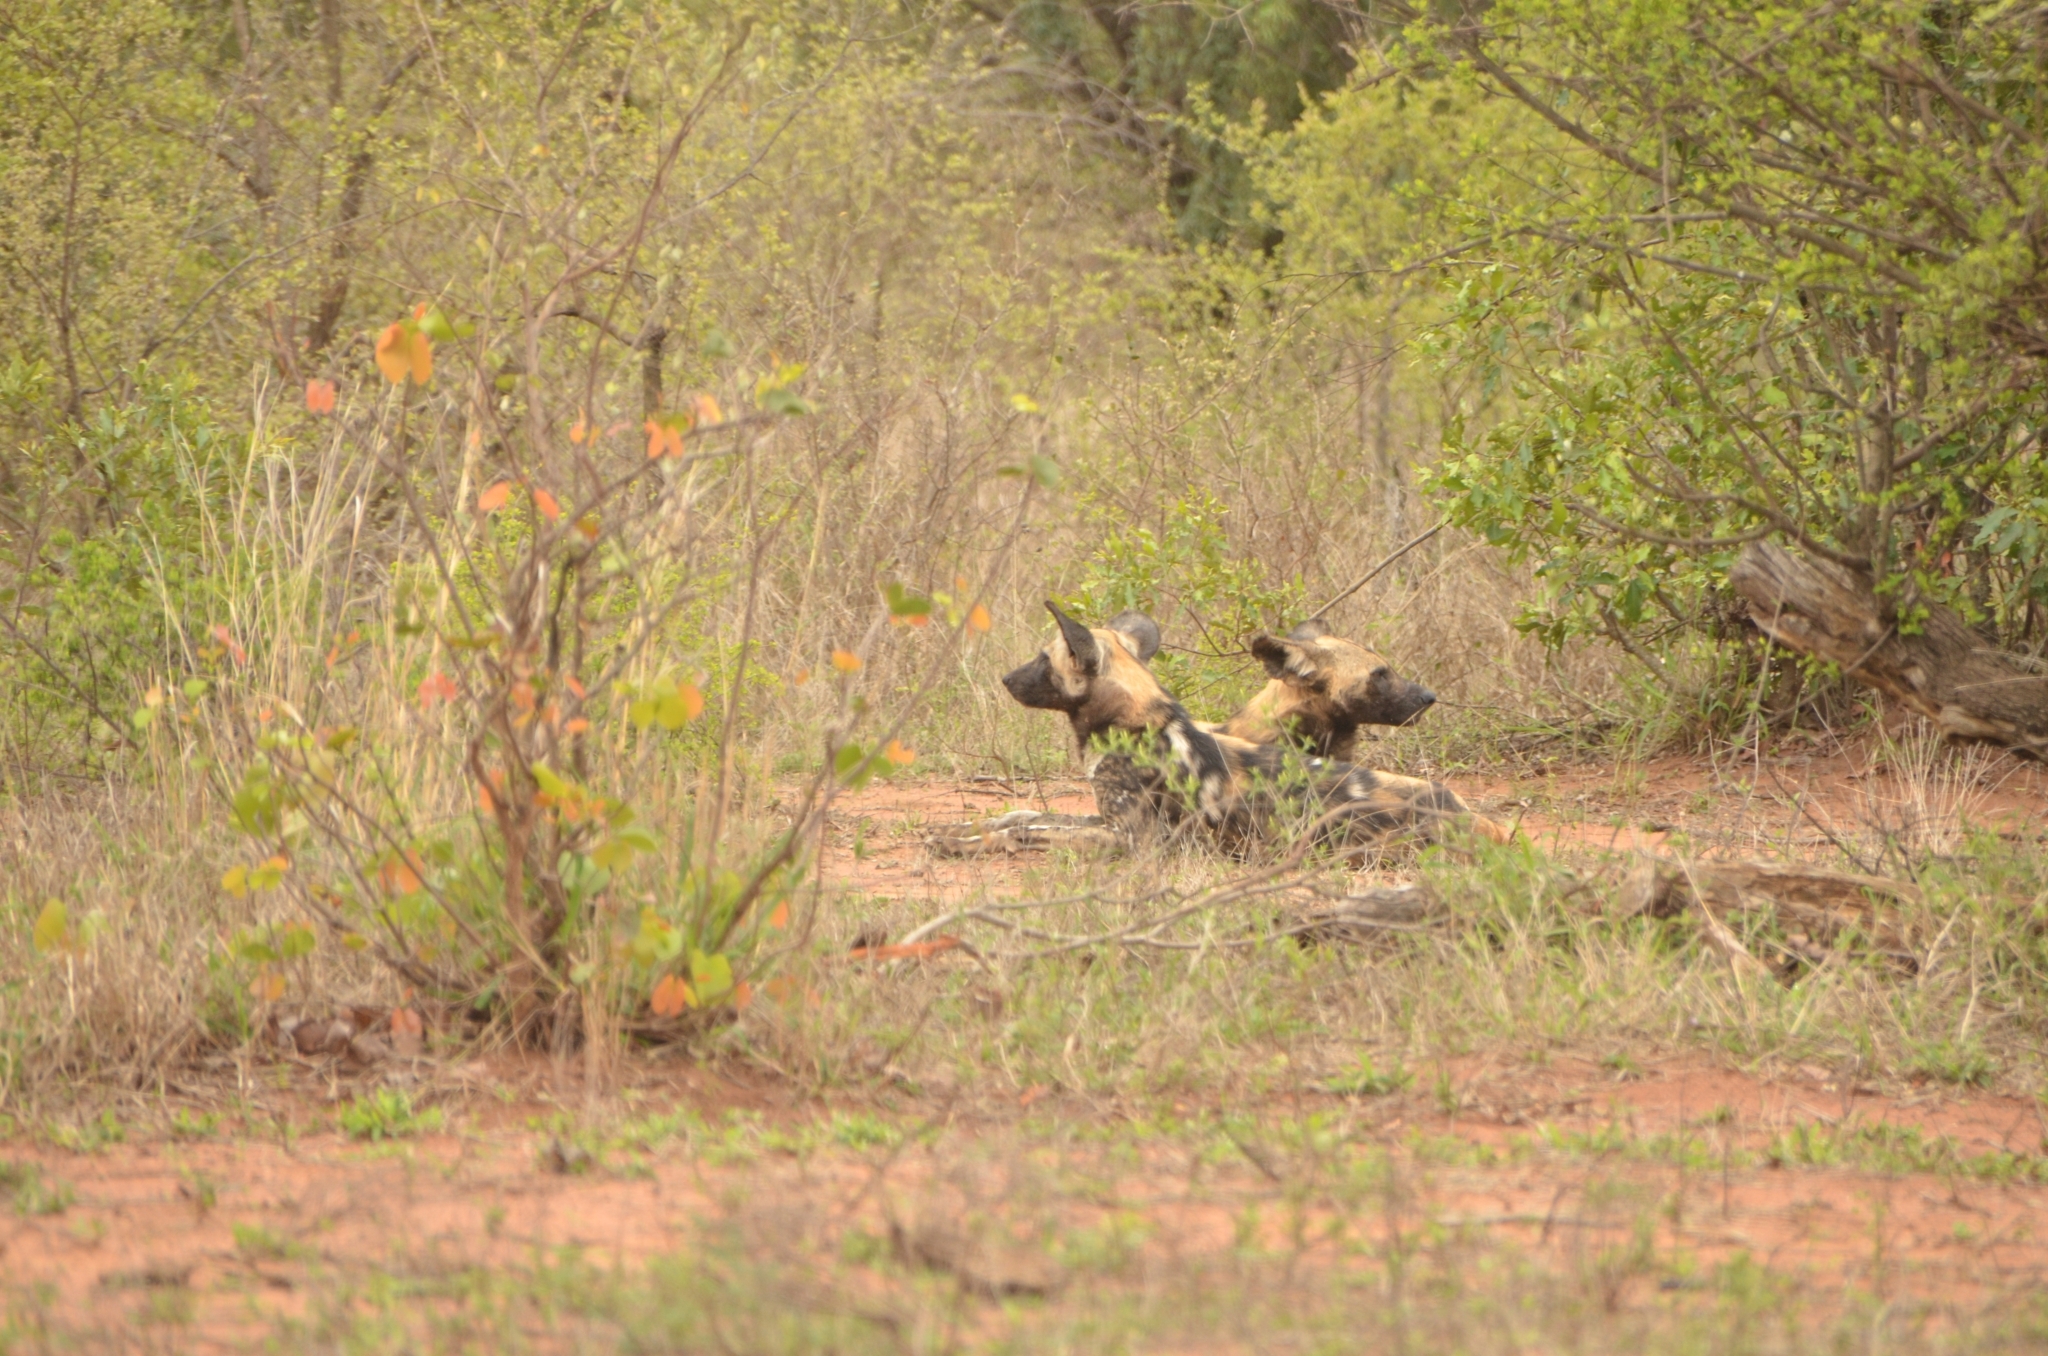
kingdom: Animalia
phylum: Chordata
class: Mammalia
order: Carnivora
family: Canidae
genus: Lycaon
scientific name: Lycaon pictus
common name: African wild dog
